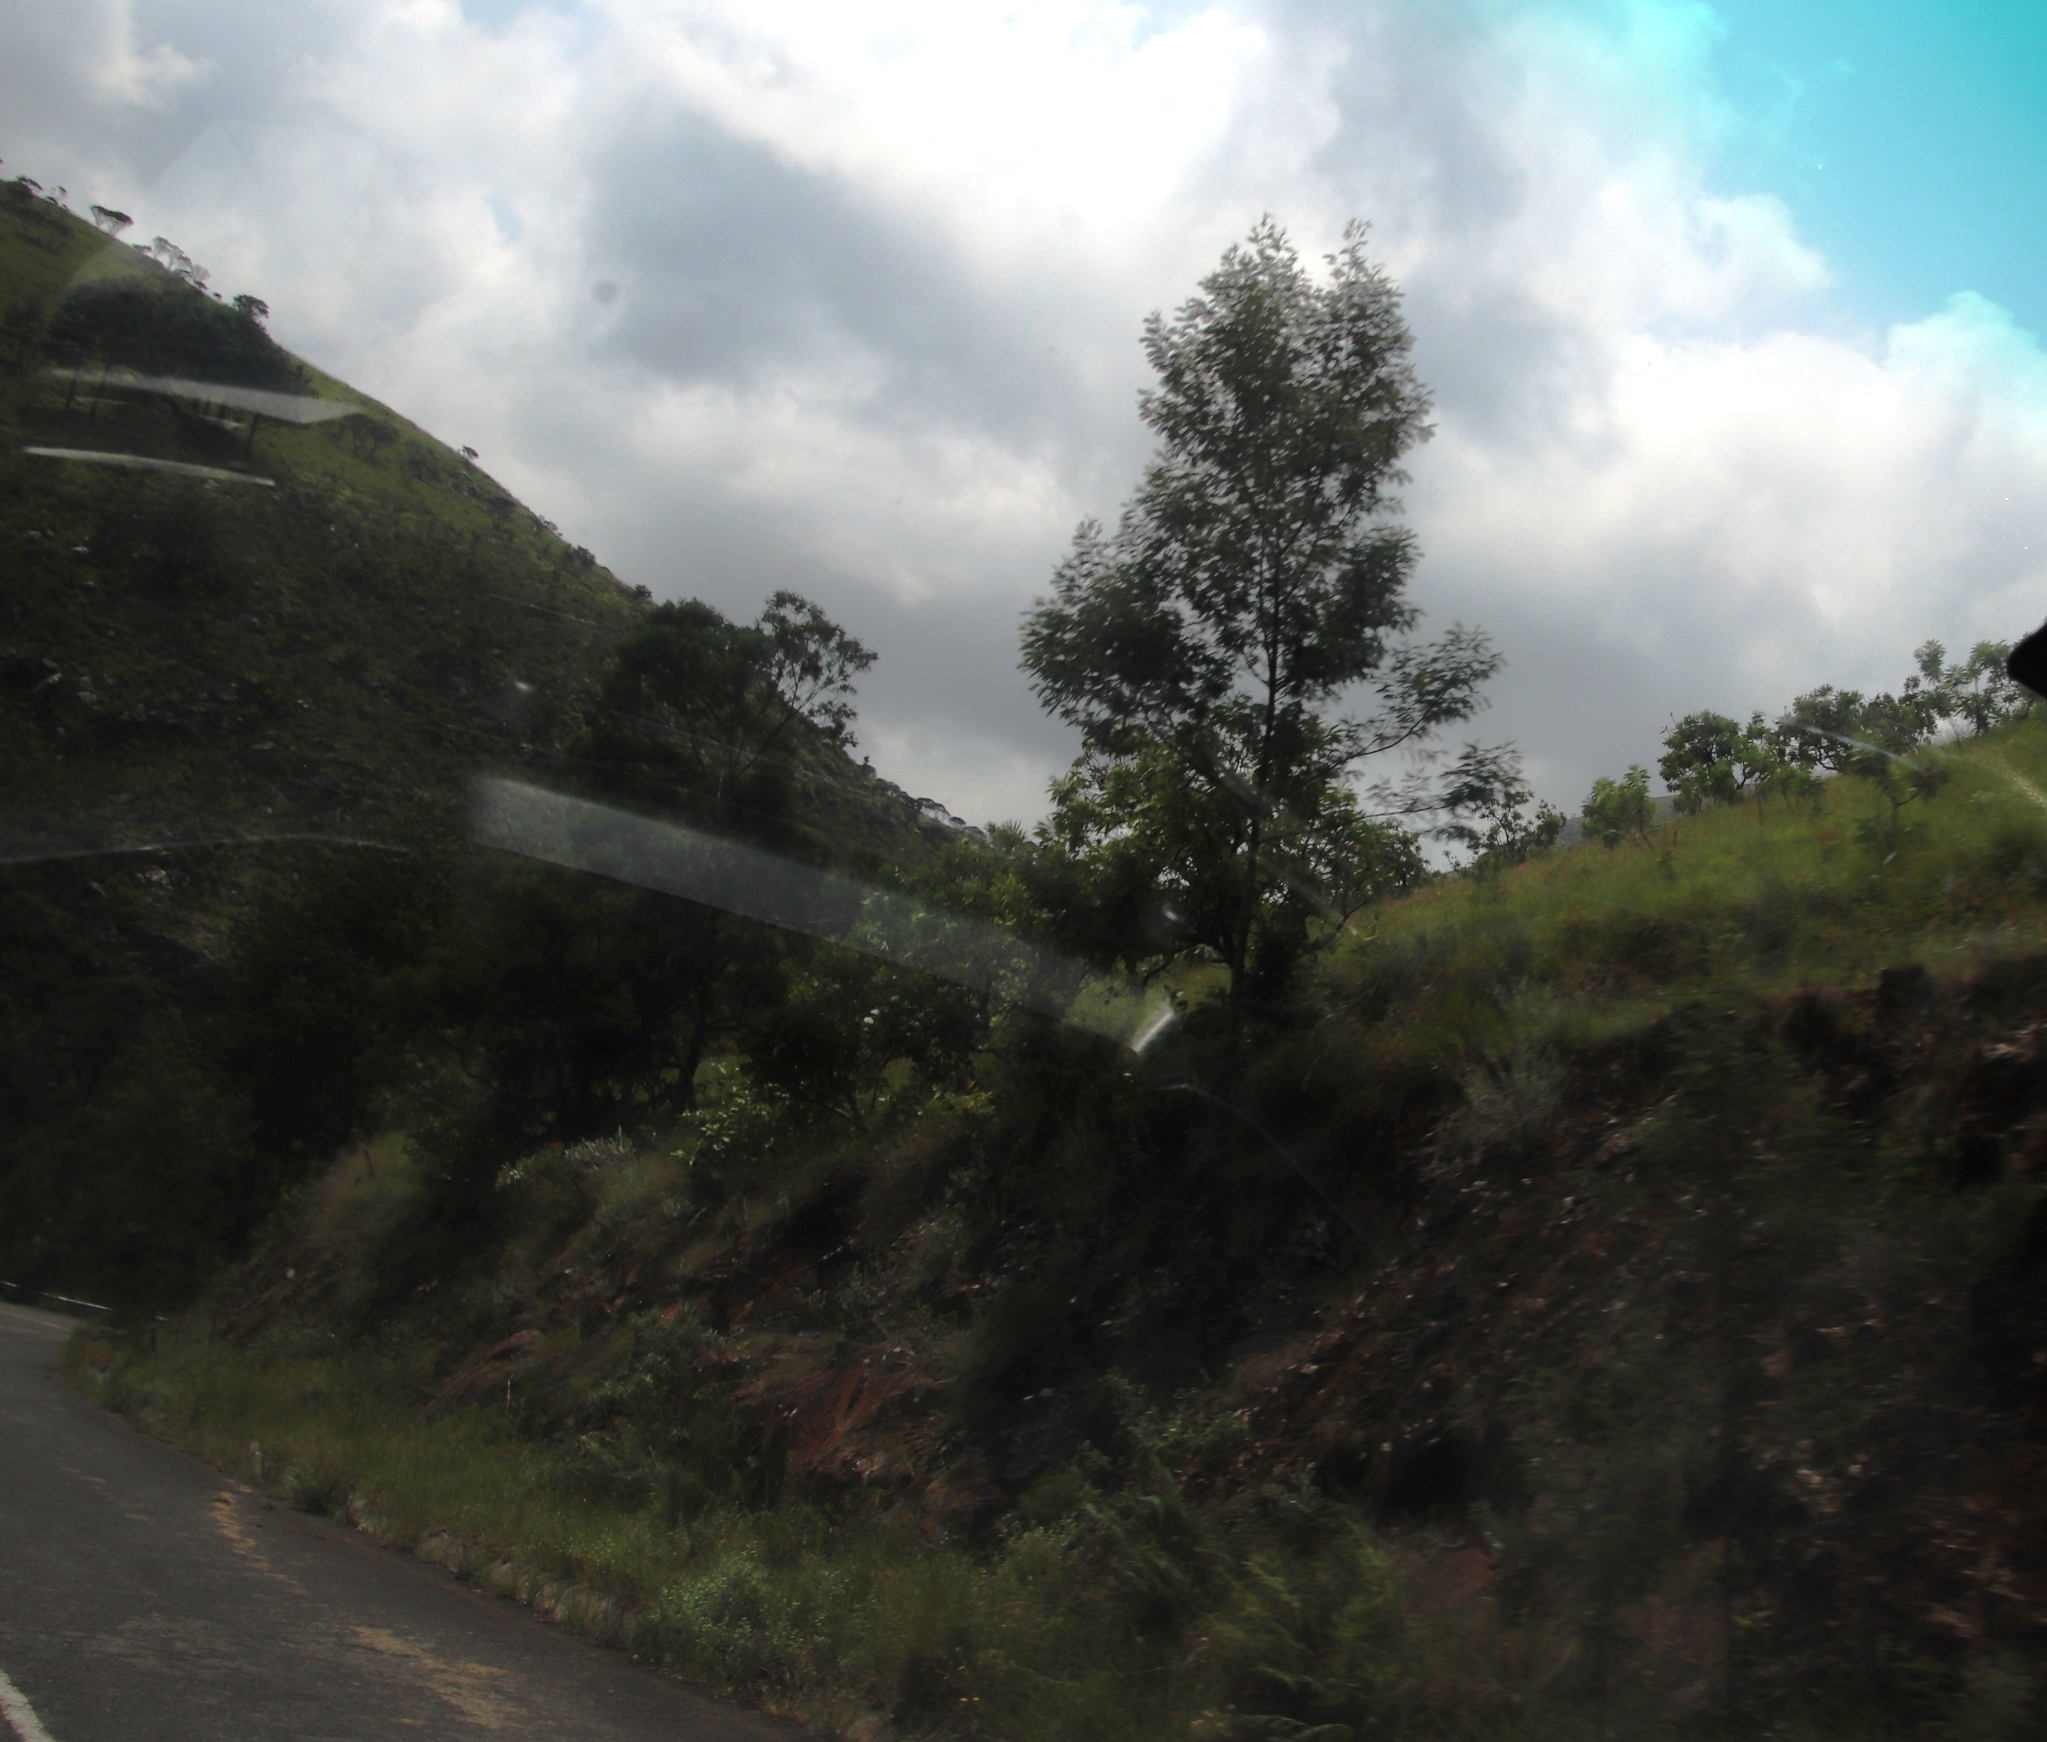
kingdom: Plantae
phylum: Tracheophyta
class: Magnoliopsida
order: Fabales
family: Fabaceae
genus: Acacia
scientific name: Acacia mearnsii
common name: Black wattle
